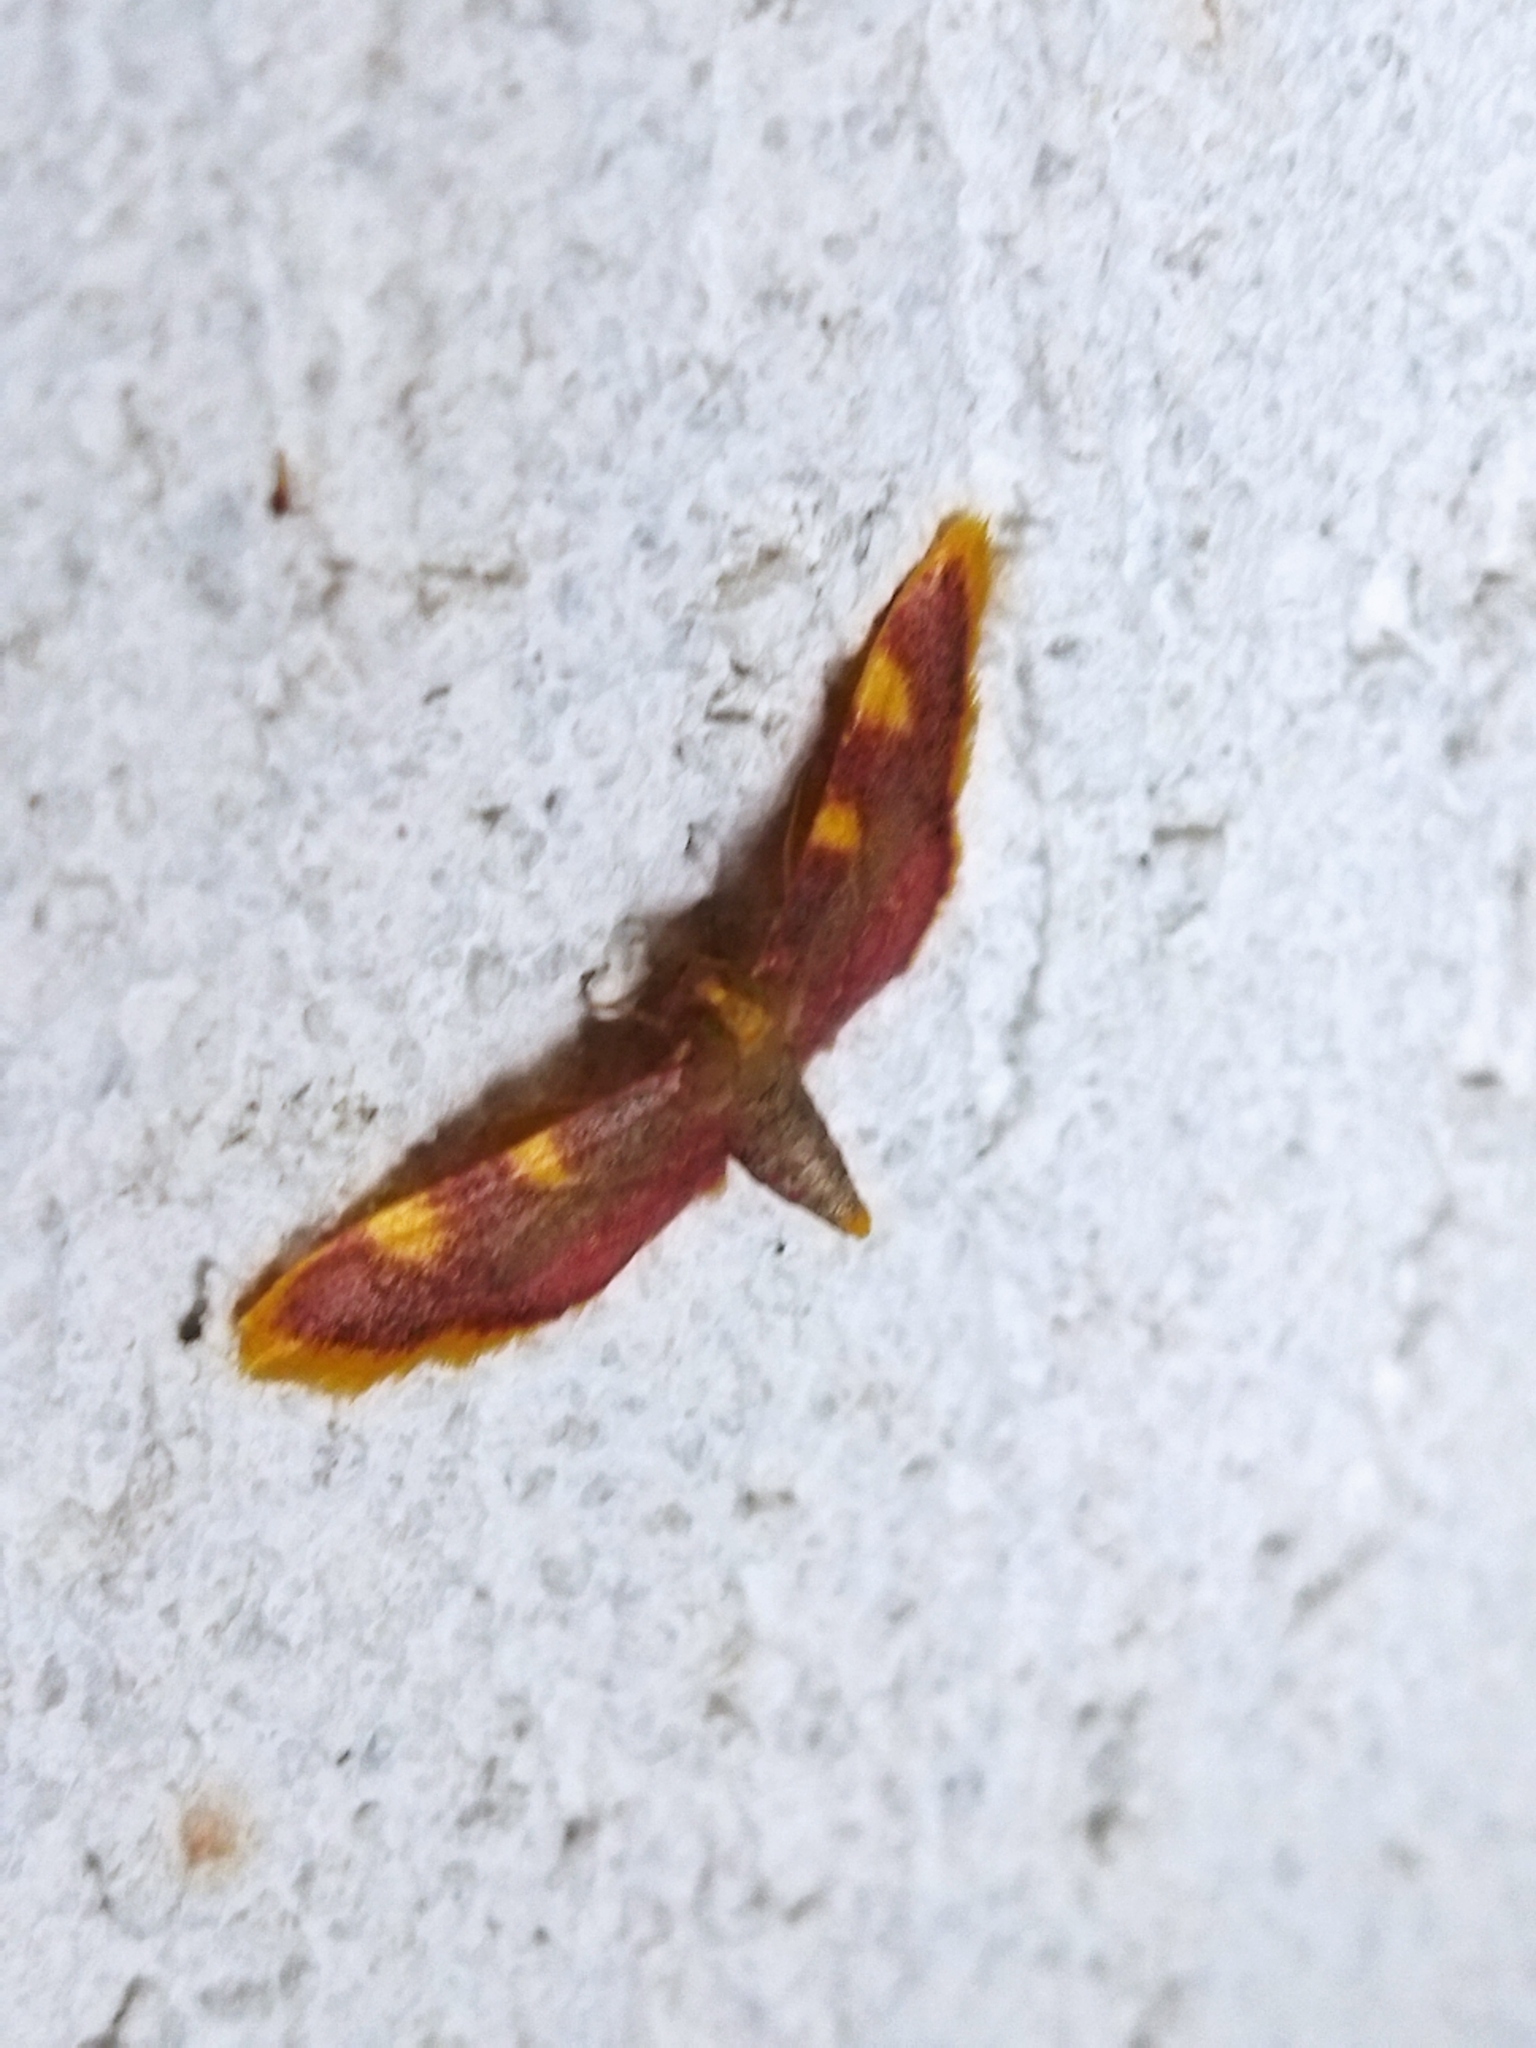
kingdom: Animalia
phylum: Arthropoda
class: Insecta
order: Lepidoptera
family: Pyralidae
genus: Hypsopygia
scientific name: Hypsopygia costalis
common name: Gold triangle
